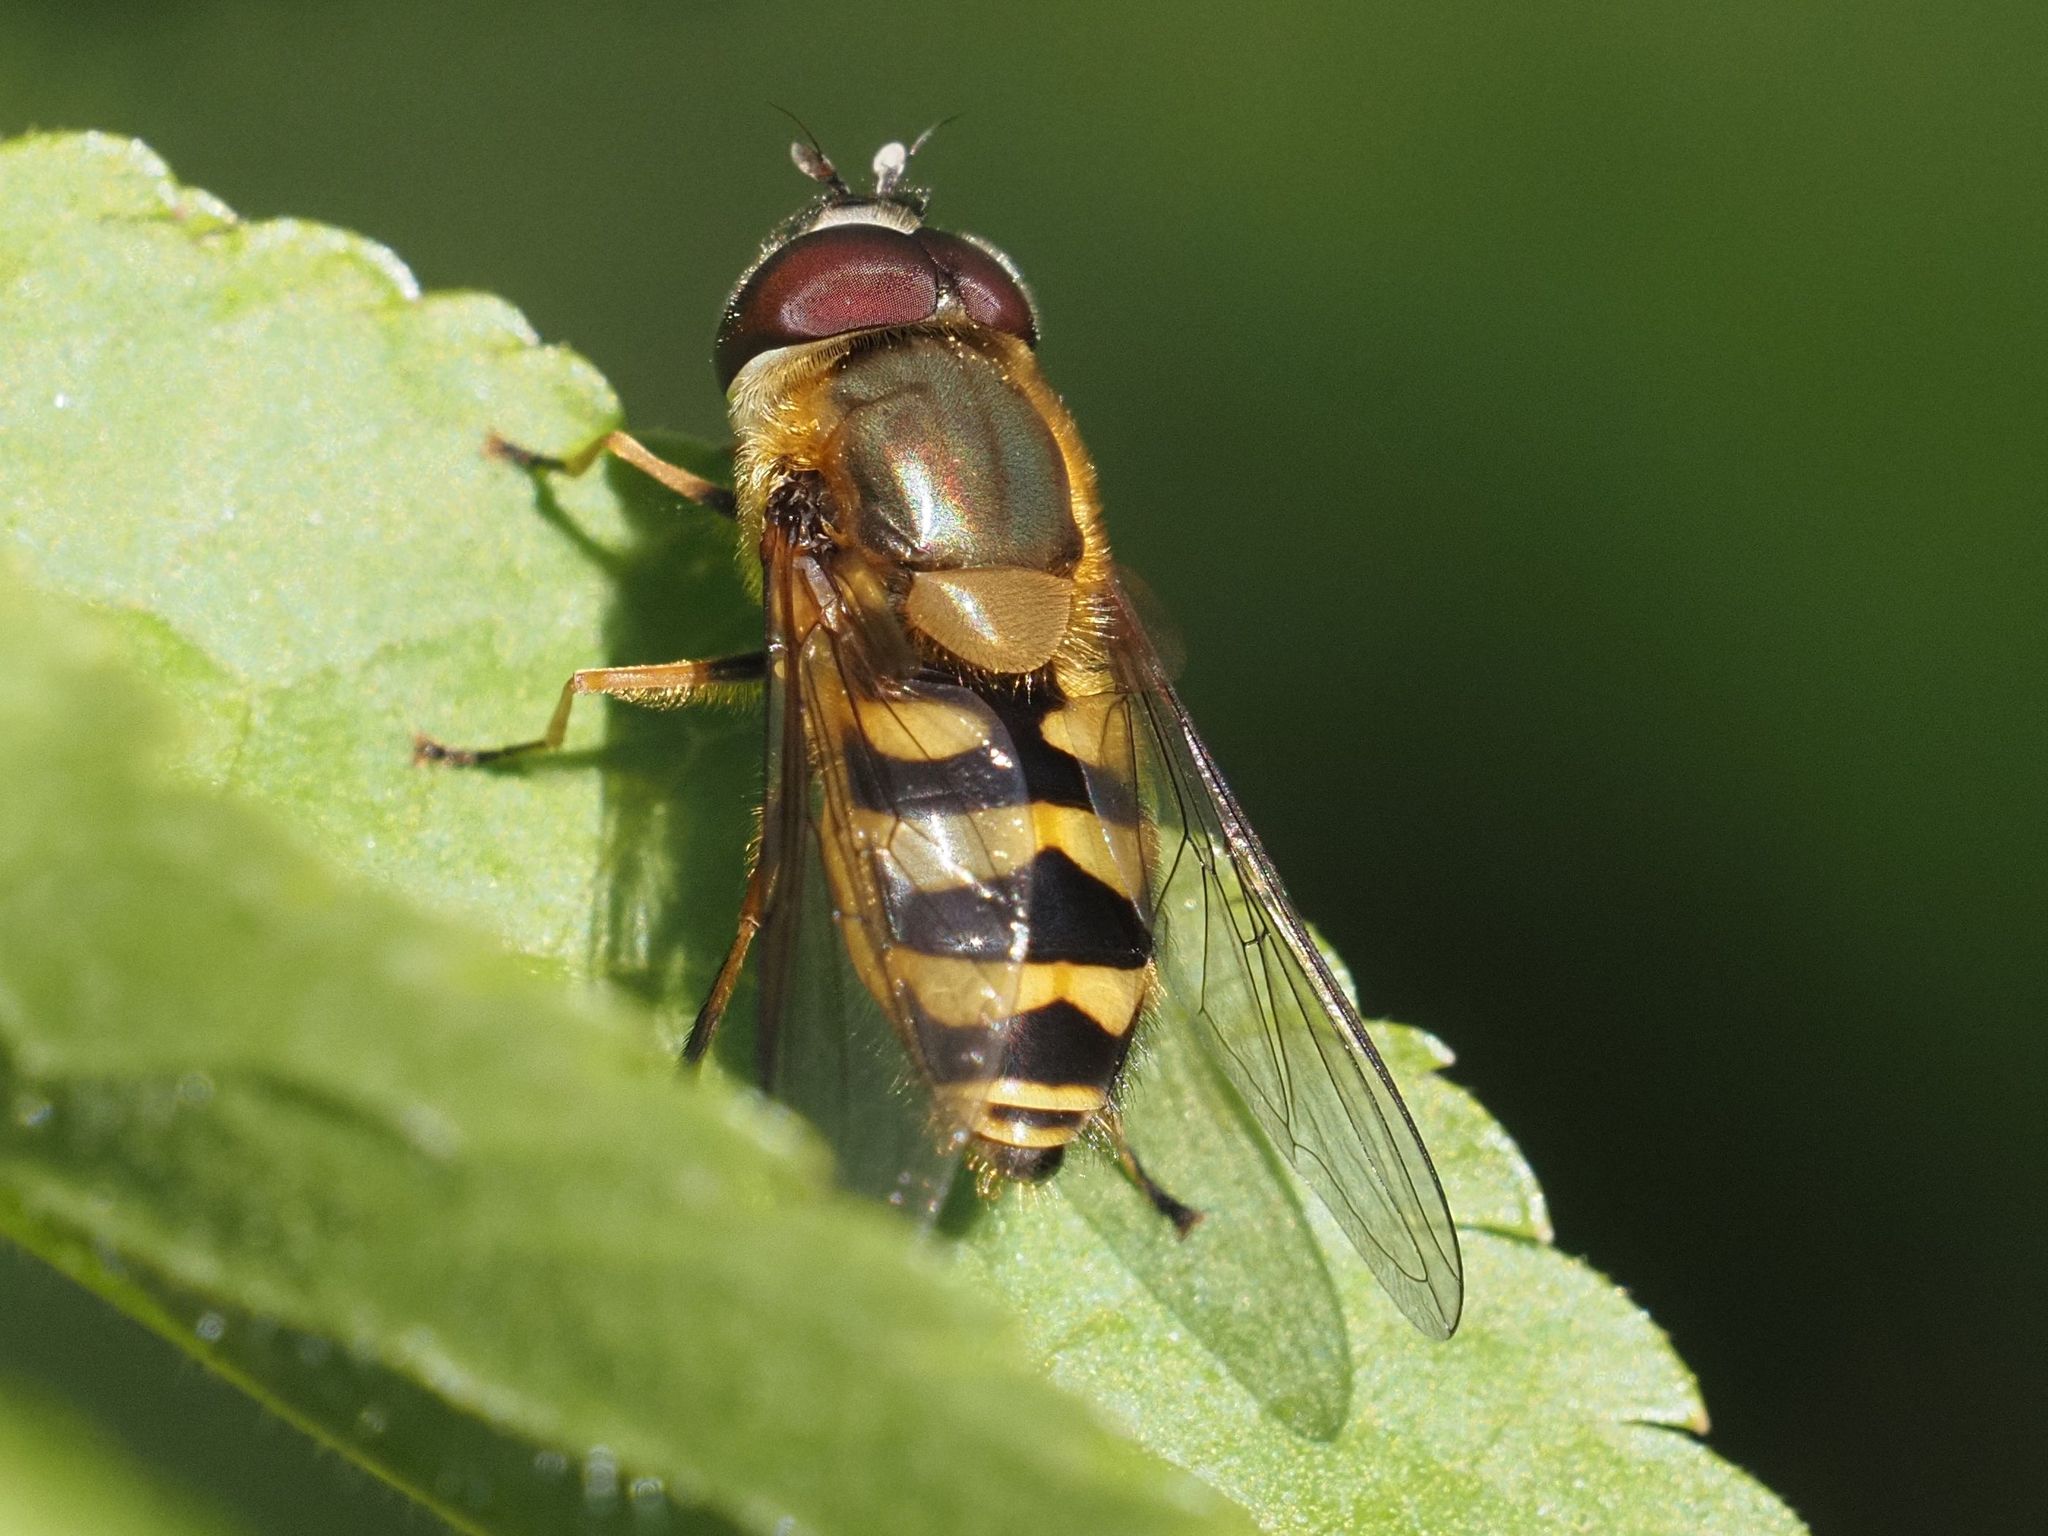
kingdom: Animalia
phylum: Arthropoda
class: Insecta
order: Diptera
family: Syrphidae
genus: Syrphus
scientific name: Syrphus torvus
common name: Hairy-eyed flower fly
